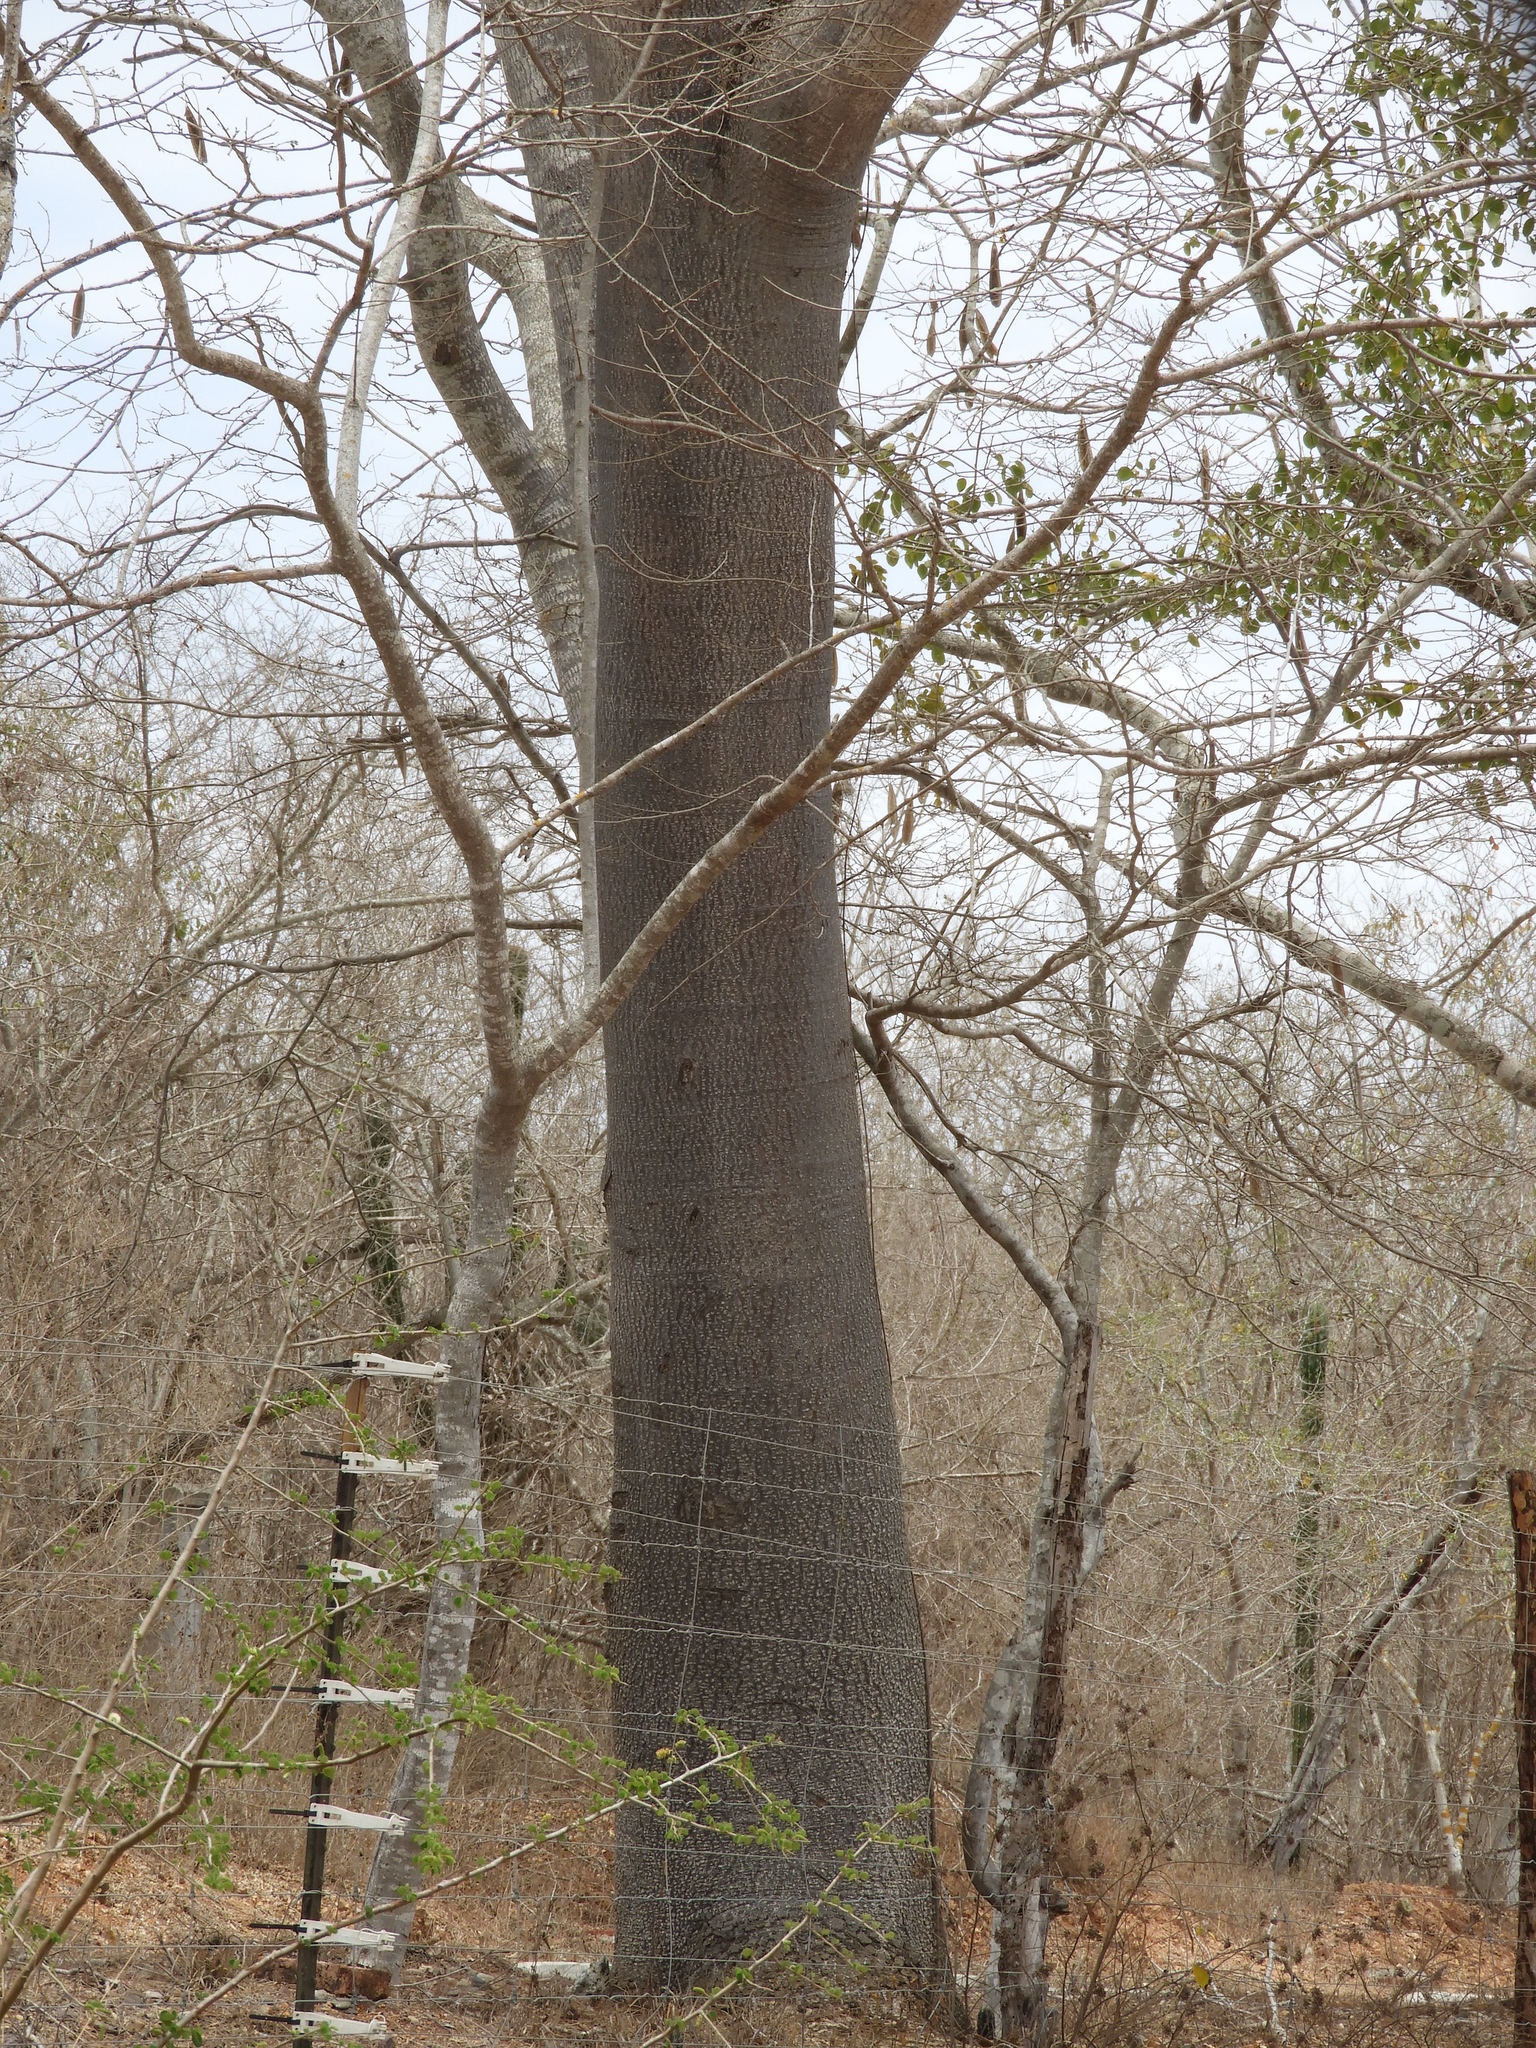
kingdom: Plantae
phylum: Tracheophyta
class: Magnoliopsida
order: Fabales
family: Fabaceae
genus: Enterolobium
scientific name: Enterolobium cyclocarpum
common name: Ear tree
